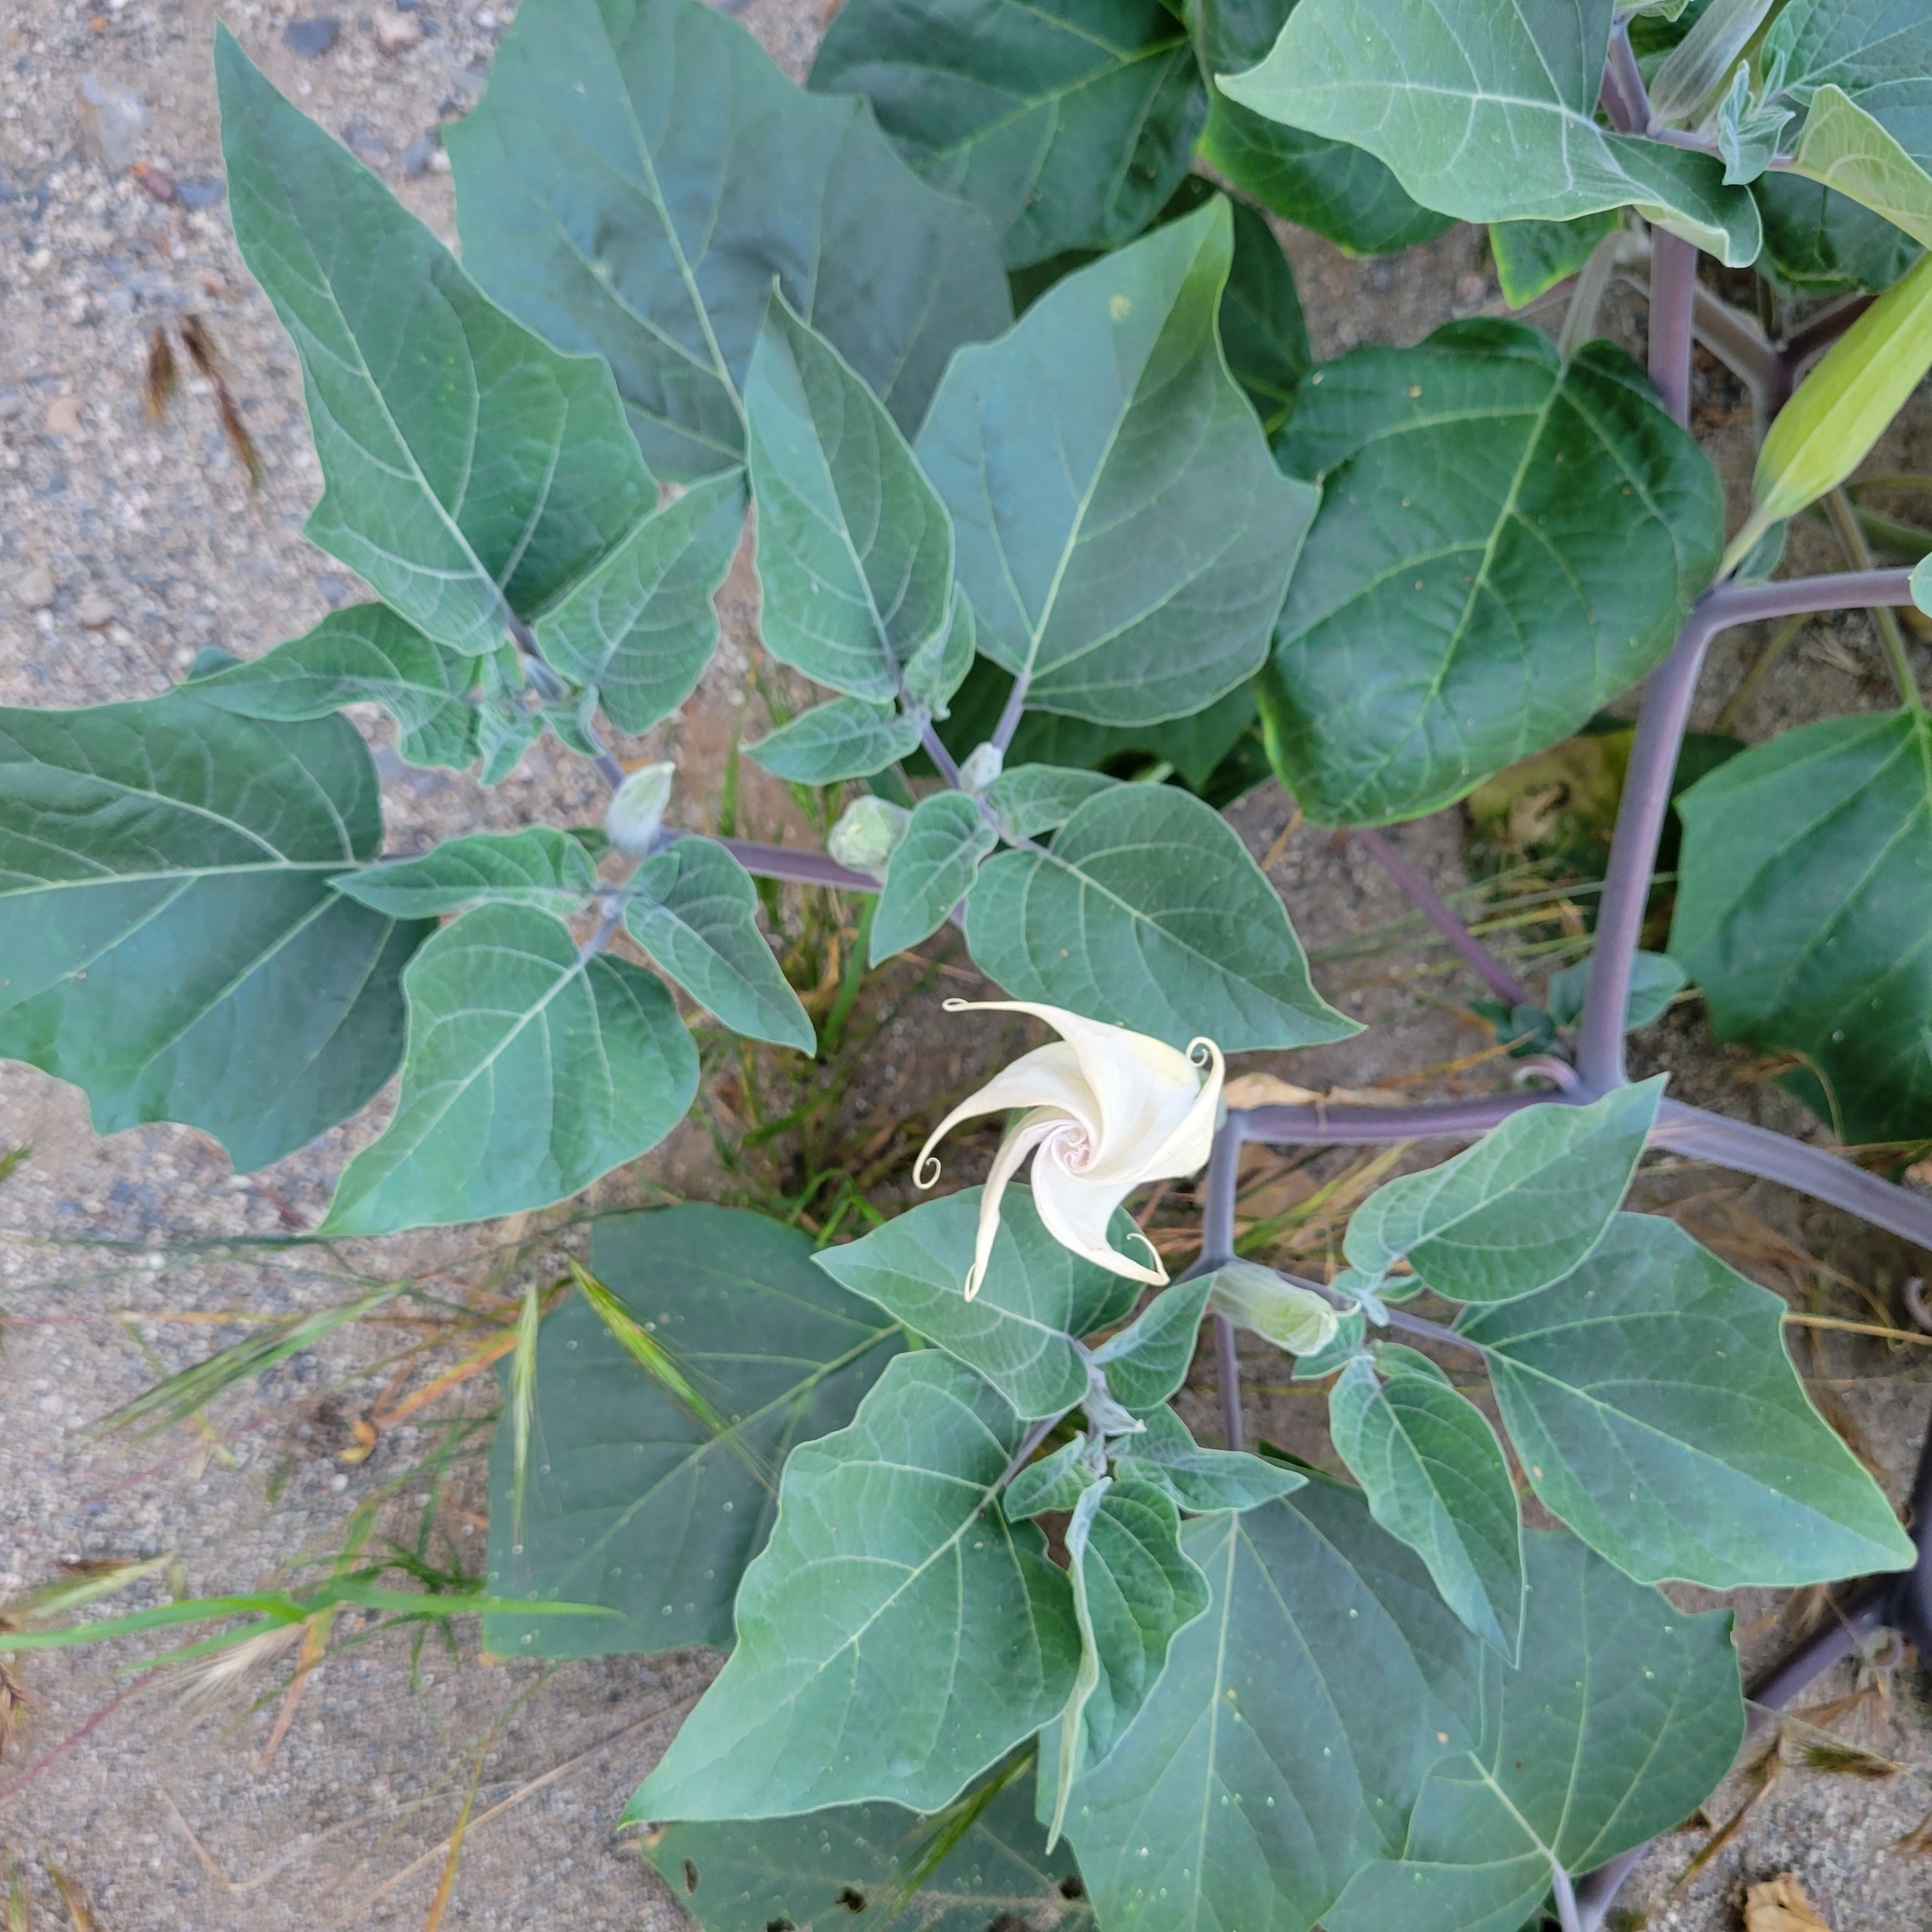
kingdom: Plantae
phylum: Tracheophyta
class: Magnoliopsida
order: Solanales
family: Solanaceae
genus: Datura
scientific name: Datura wrightii
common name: Sacred thorn-apple
